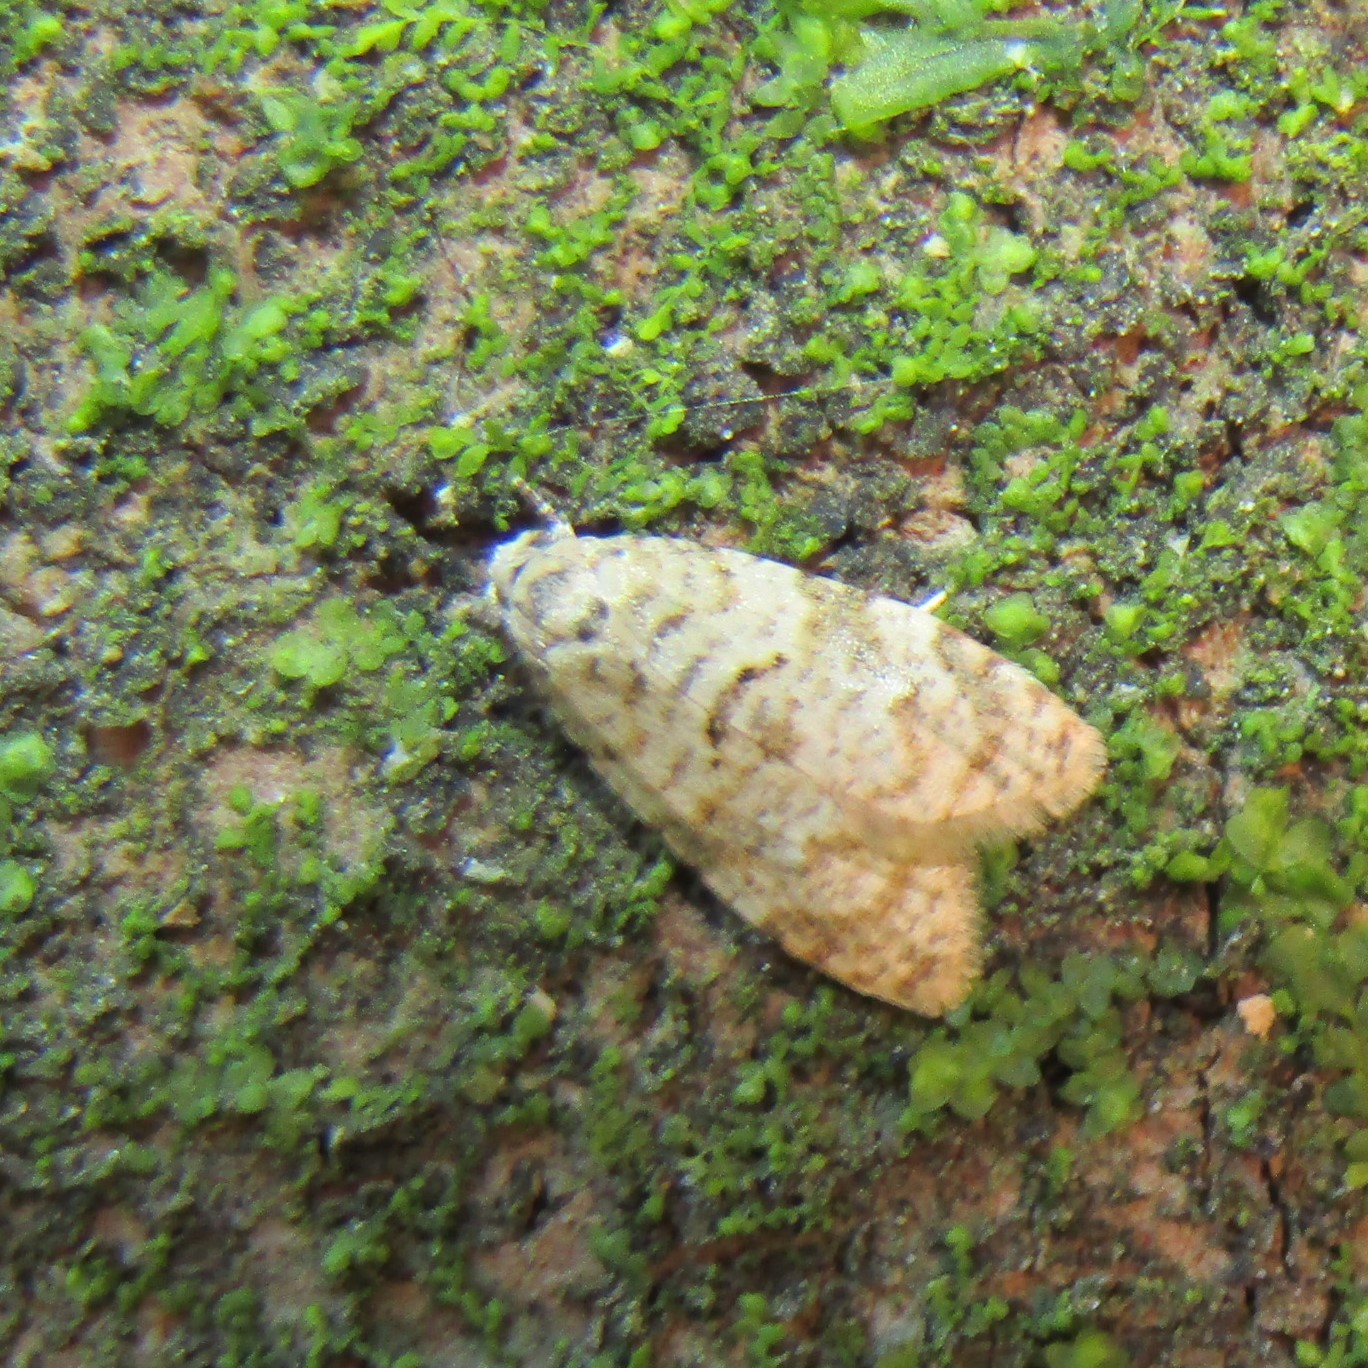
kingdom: Animalia
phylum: Arthropoda
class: Insecta
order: Lepidoptera
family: Tortricidae
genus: Dipterina
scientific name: Dipterina imbriferana
